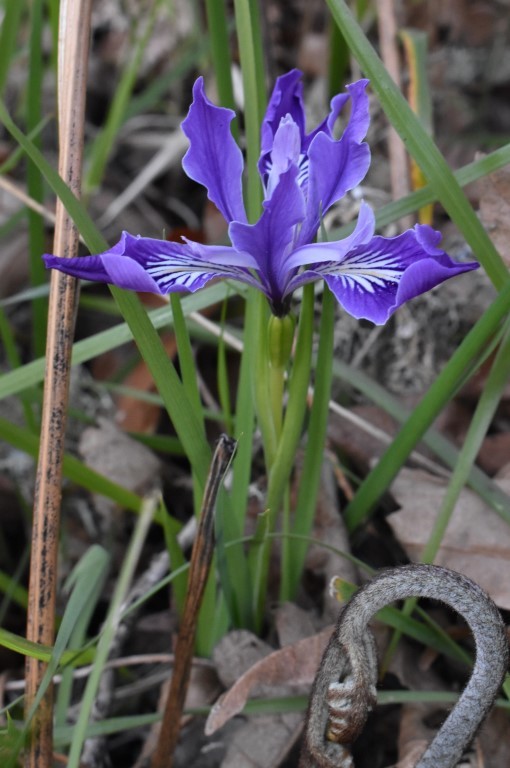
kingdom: Plantae
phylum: Tracheophyta
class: Liliopsida
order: Asparagales
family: Iridaceae
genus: Iris
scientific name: Iris tenax
